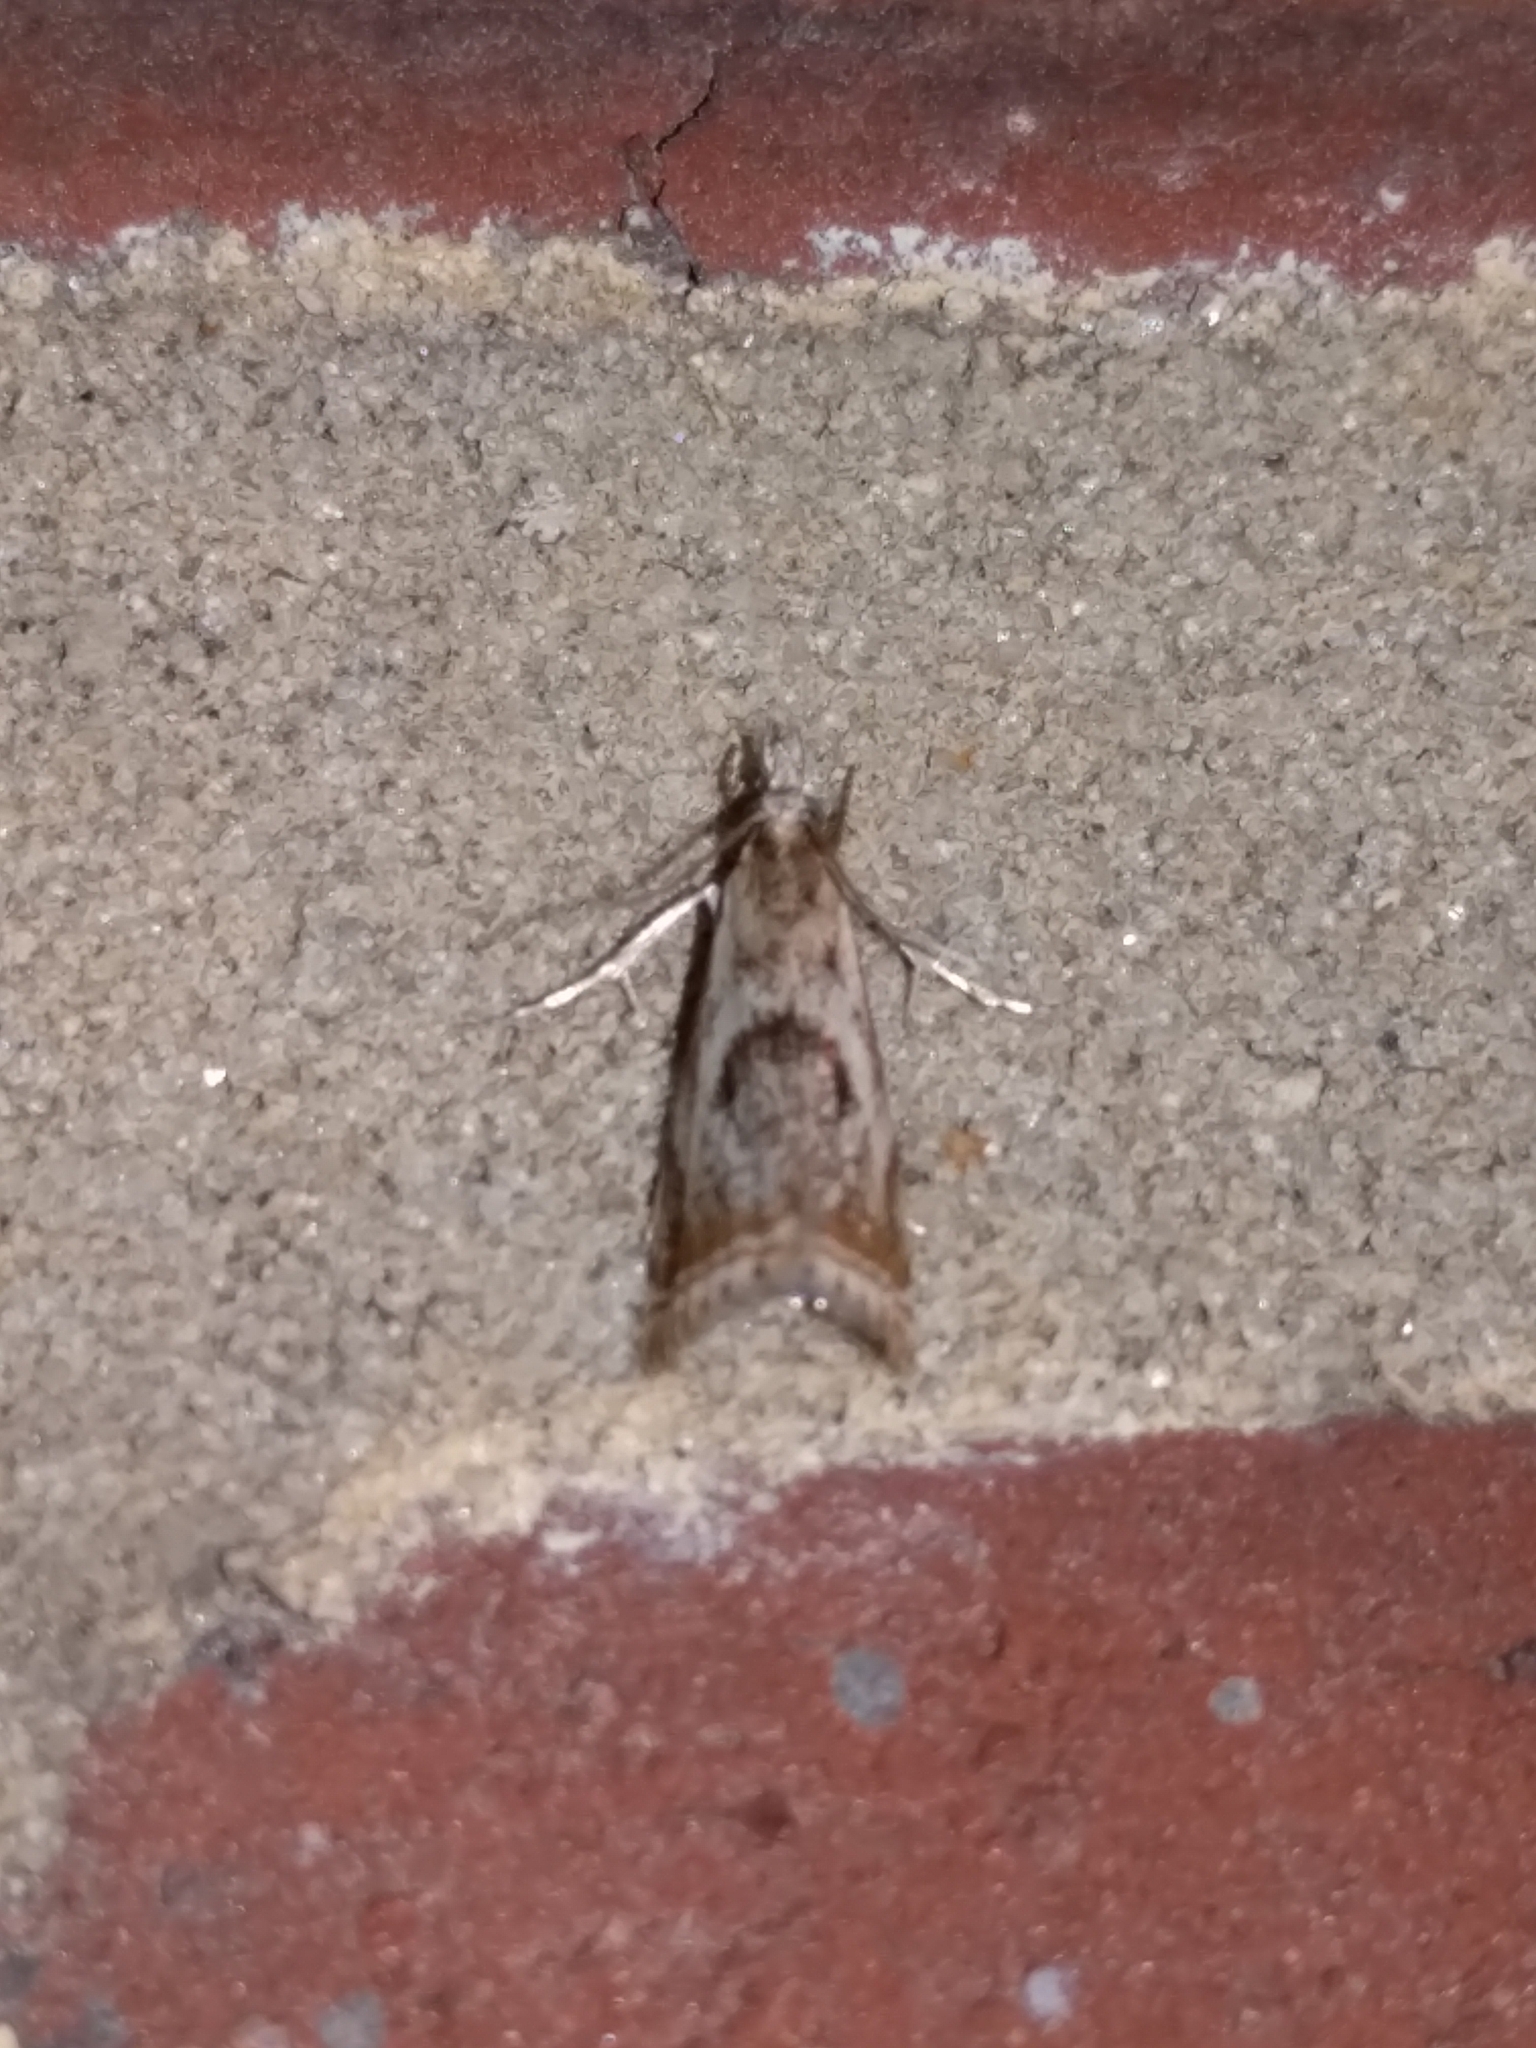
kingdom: Animalia
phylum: Arthropoda
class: Insecta
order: Lepidoptera
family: Crambidae
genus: Microcrambus
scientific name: Microcrambus elegans
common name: Elegant grass-veneer
